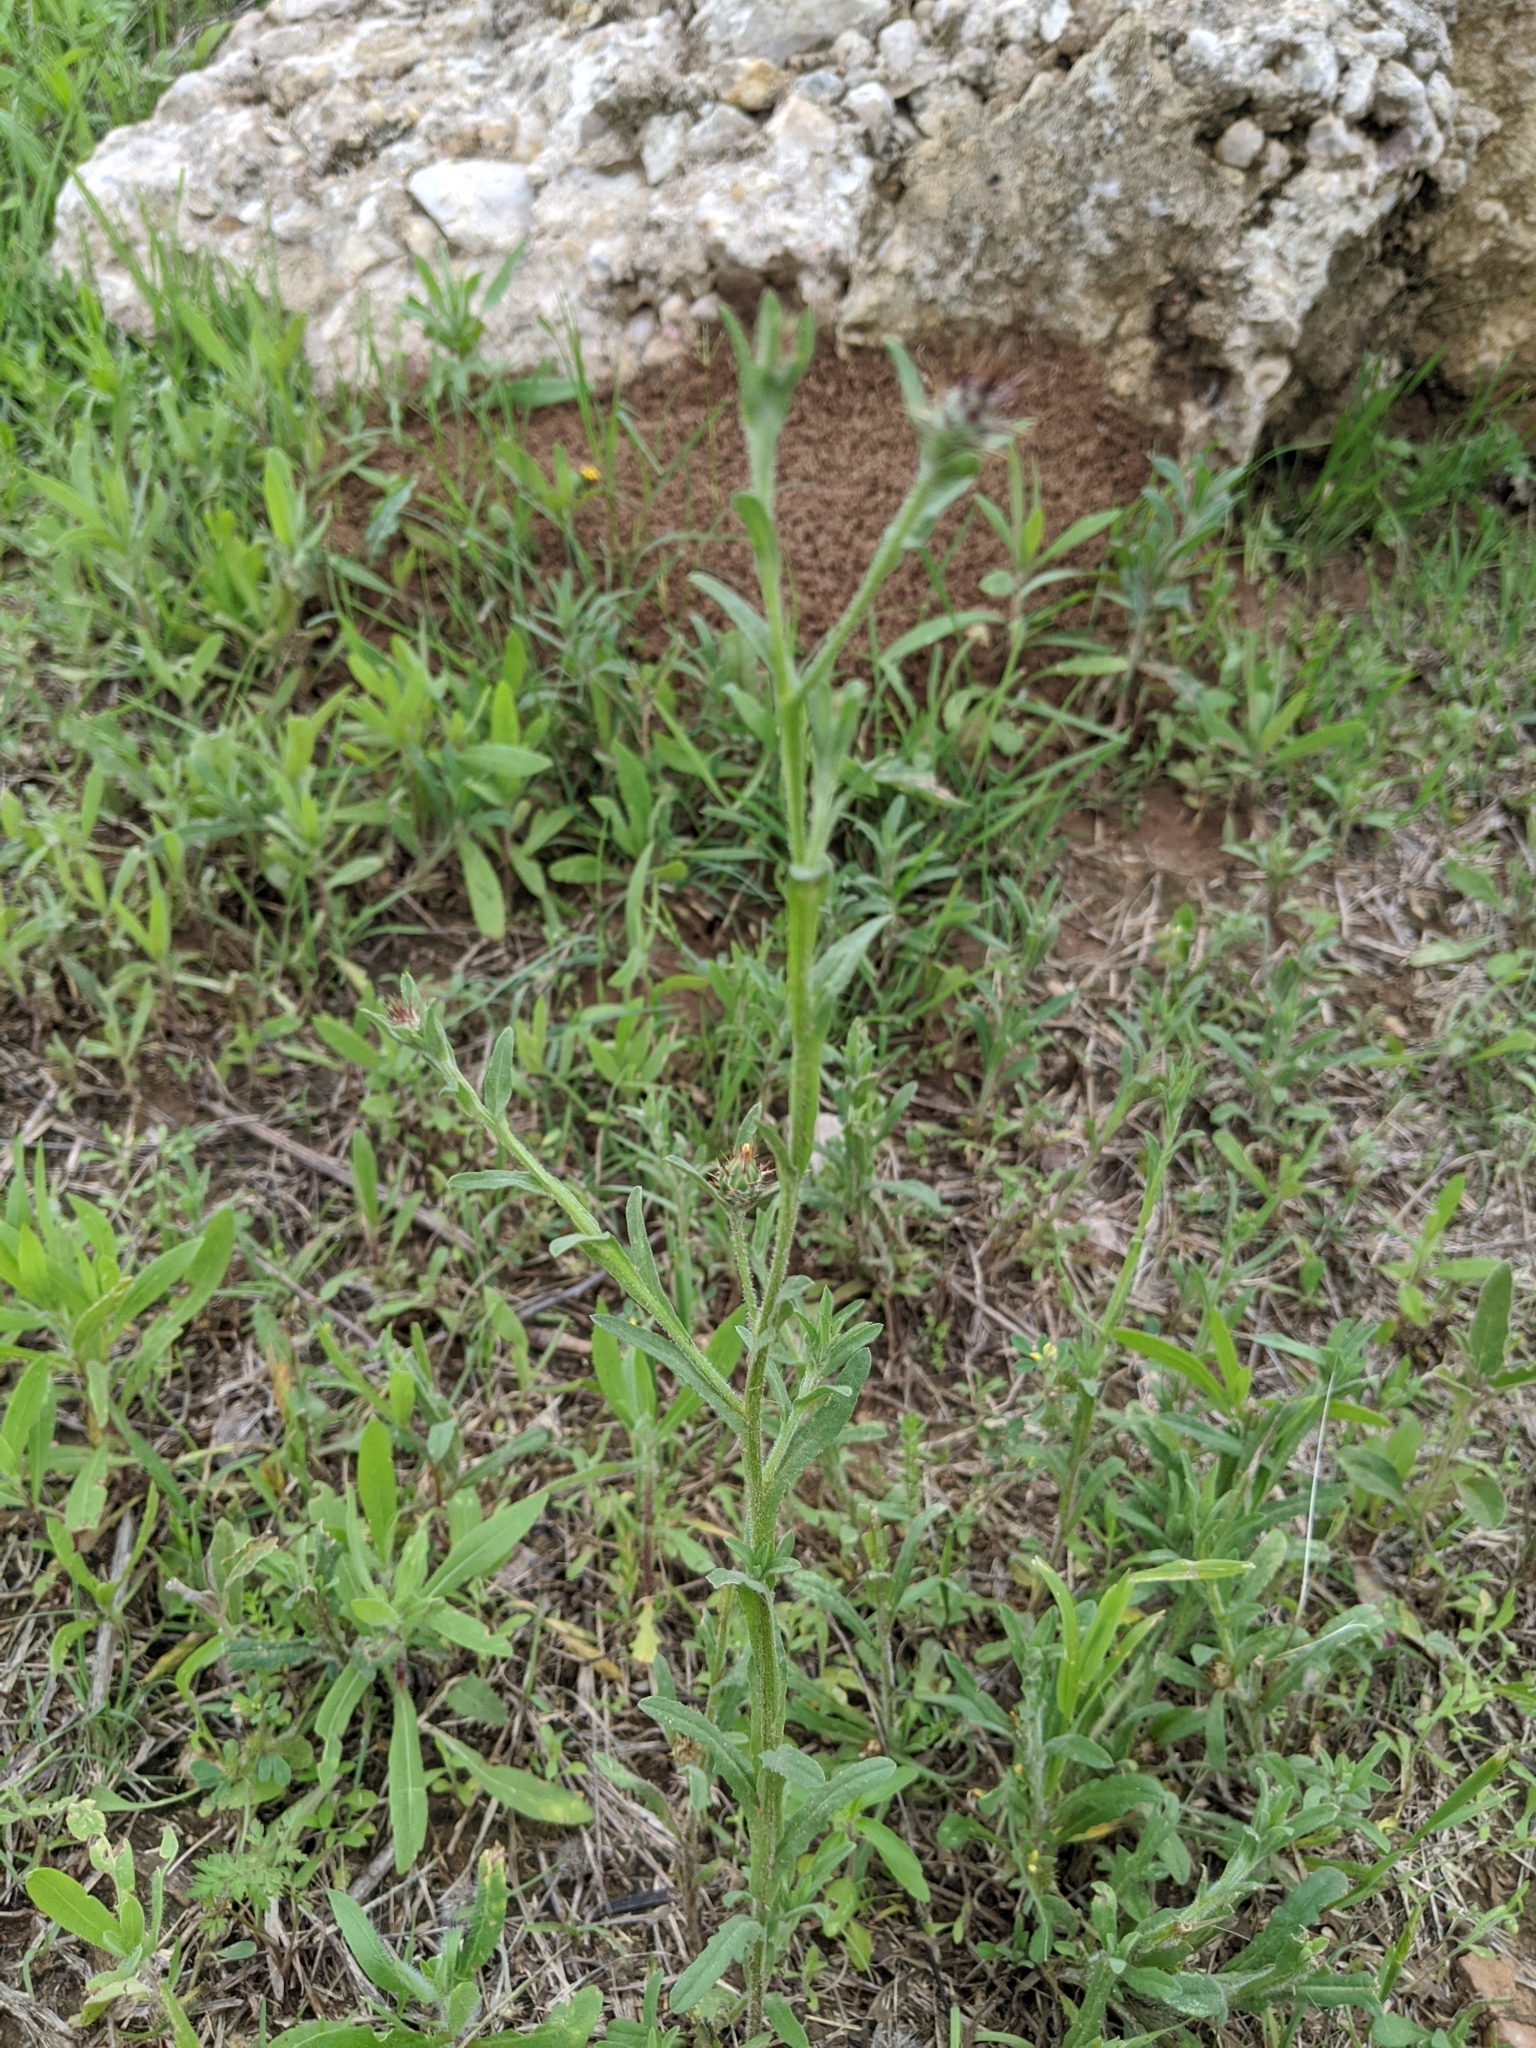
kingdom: Plantae
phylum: Tracheophyta
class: Magnoliopsida
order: Asterales
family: Asteraceae
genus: Centaurea
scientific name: Centaurea melitensis
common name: Maltese star-thistle
